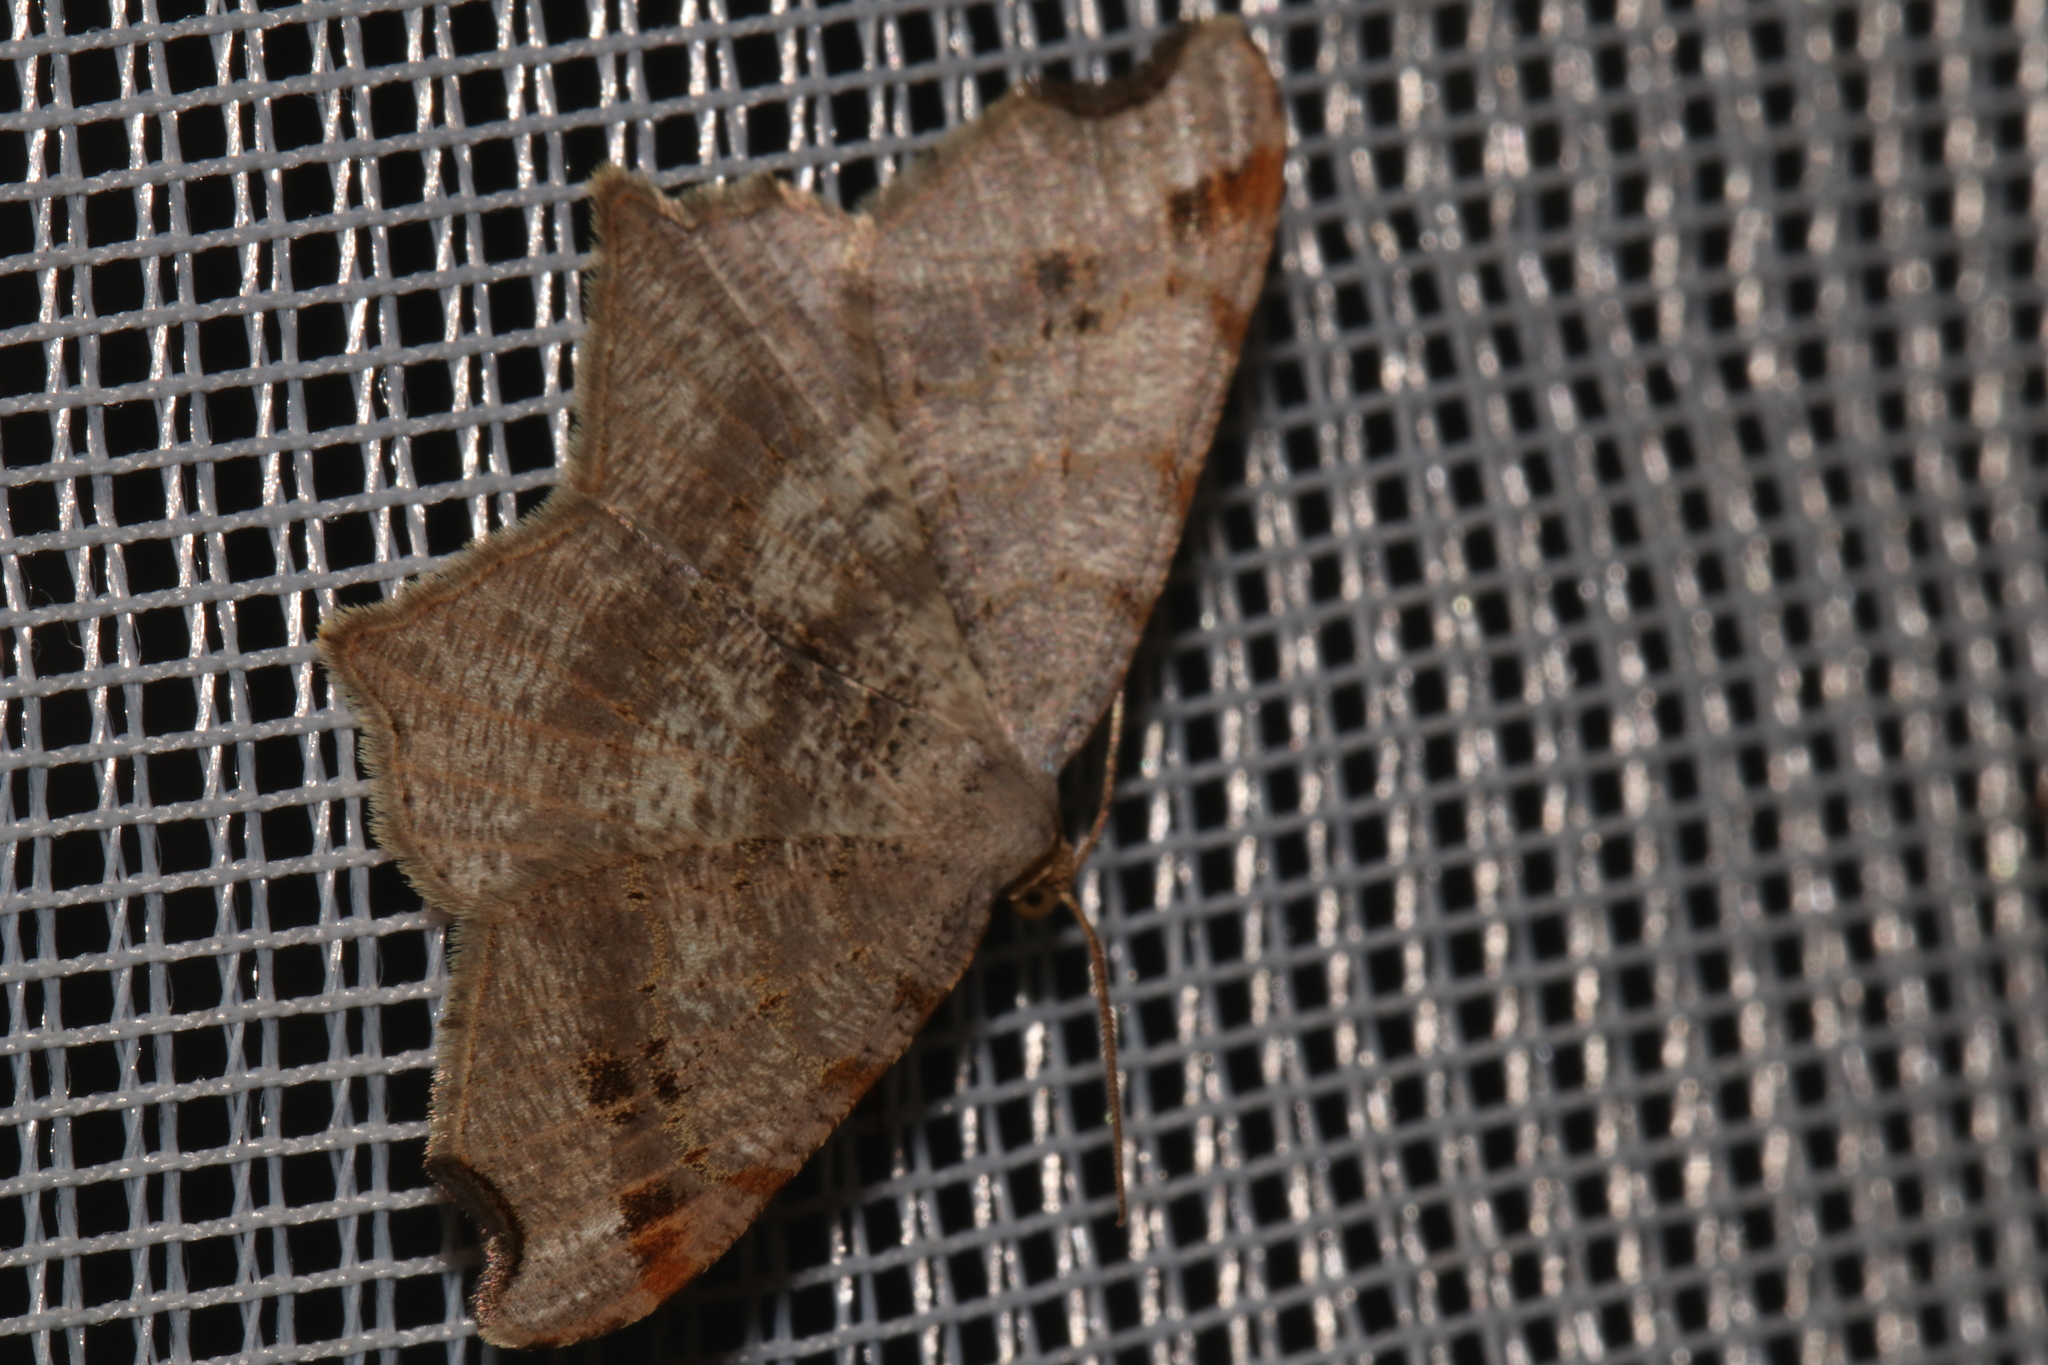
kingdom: Animalia
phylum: Arthropoda
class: Insecta
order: Lepidoptera
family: Geometridae
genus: Macaria
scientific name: Macaria alternata
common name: Sharp-angled peacock
